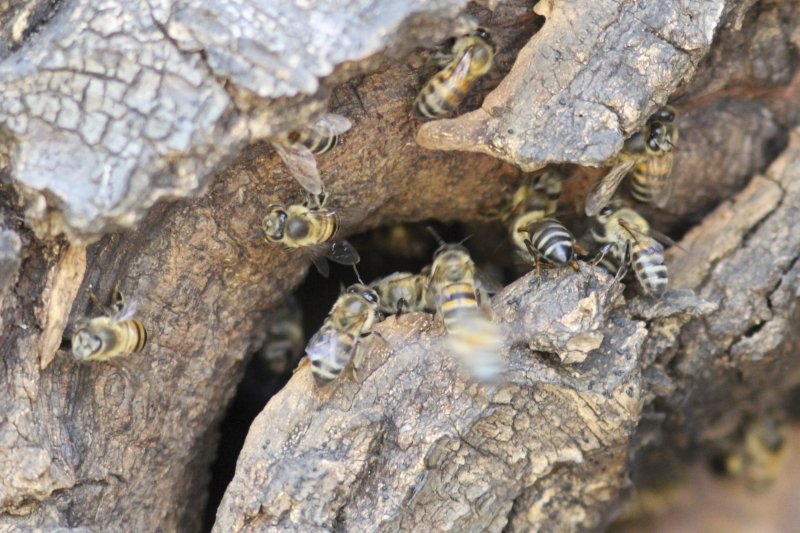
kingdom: Animalia
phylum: Arthropoda
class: Insecta
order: Hymenoptera
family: Apidae
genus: Apis
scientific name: Apis mellifera
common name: Honey bee
